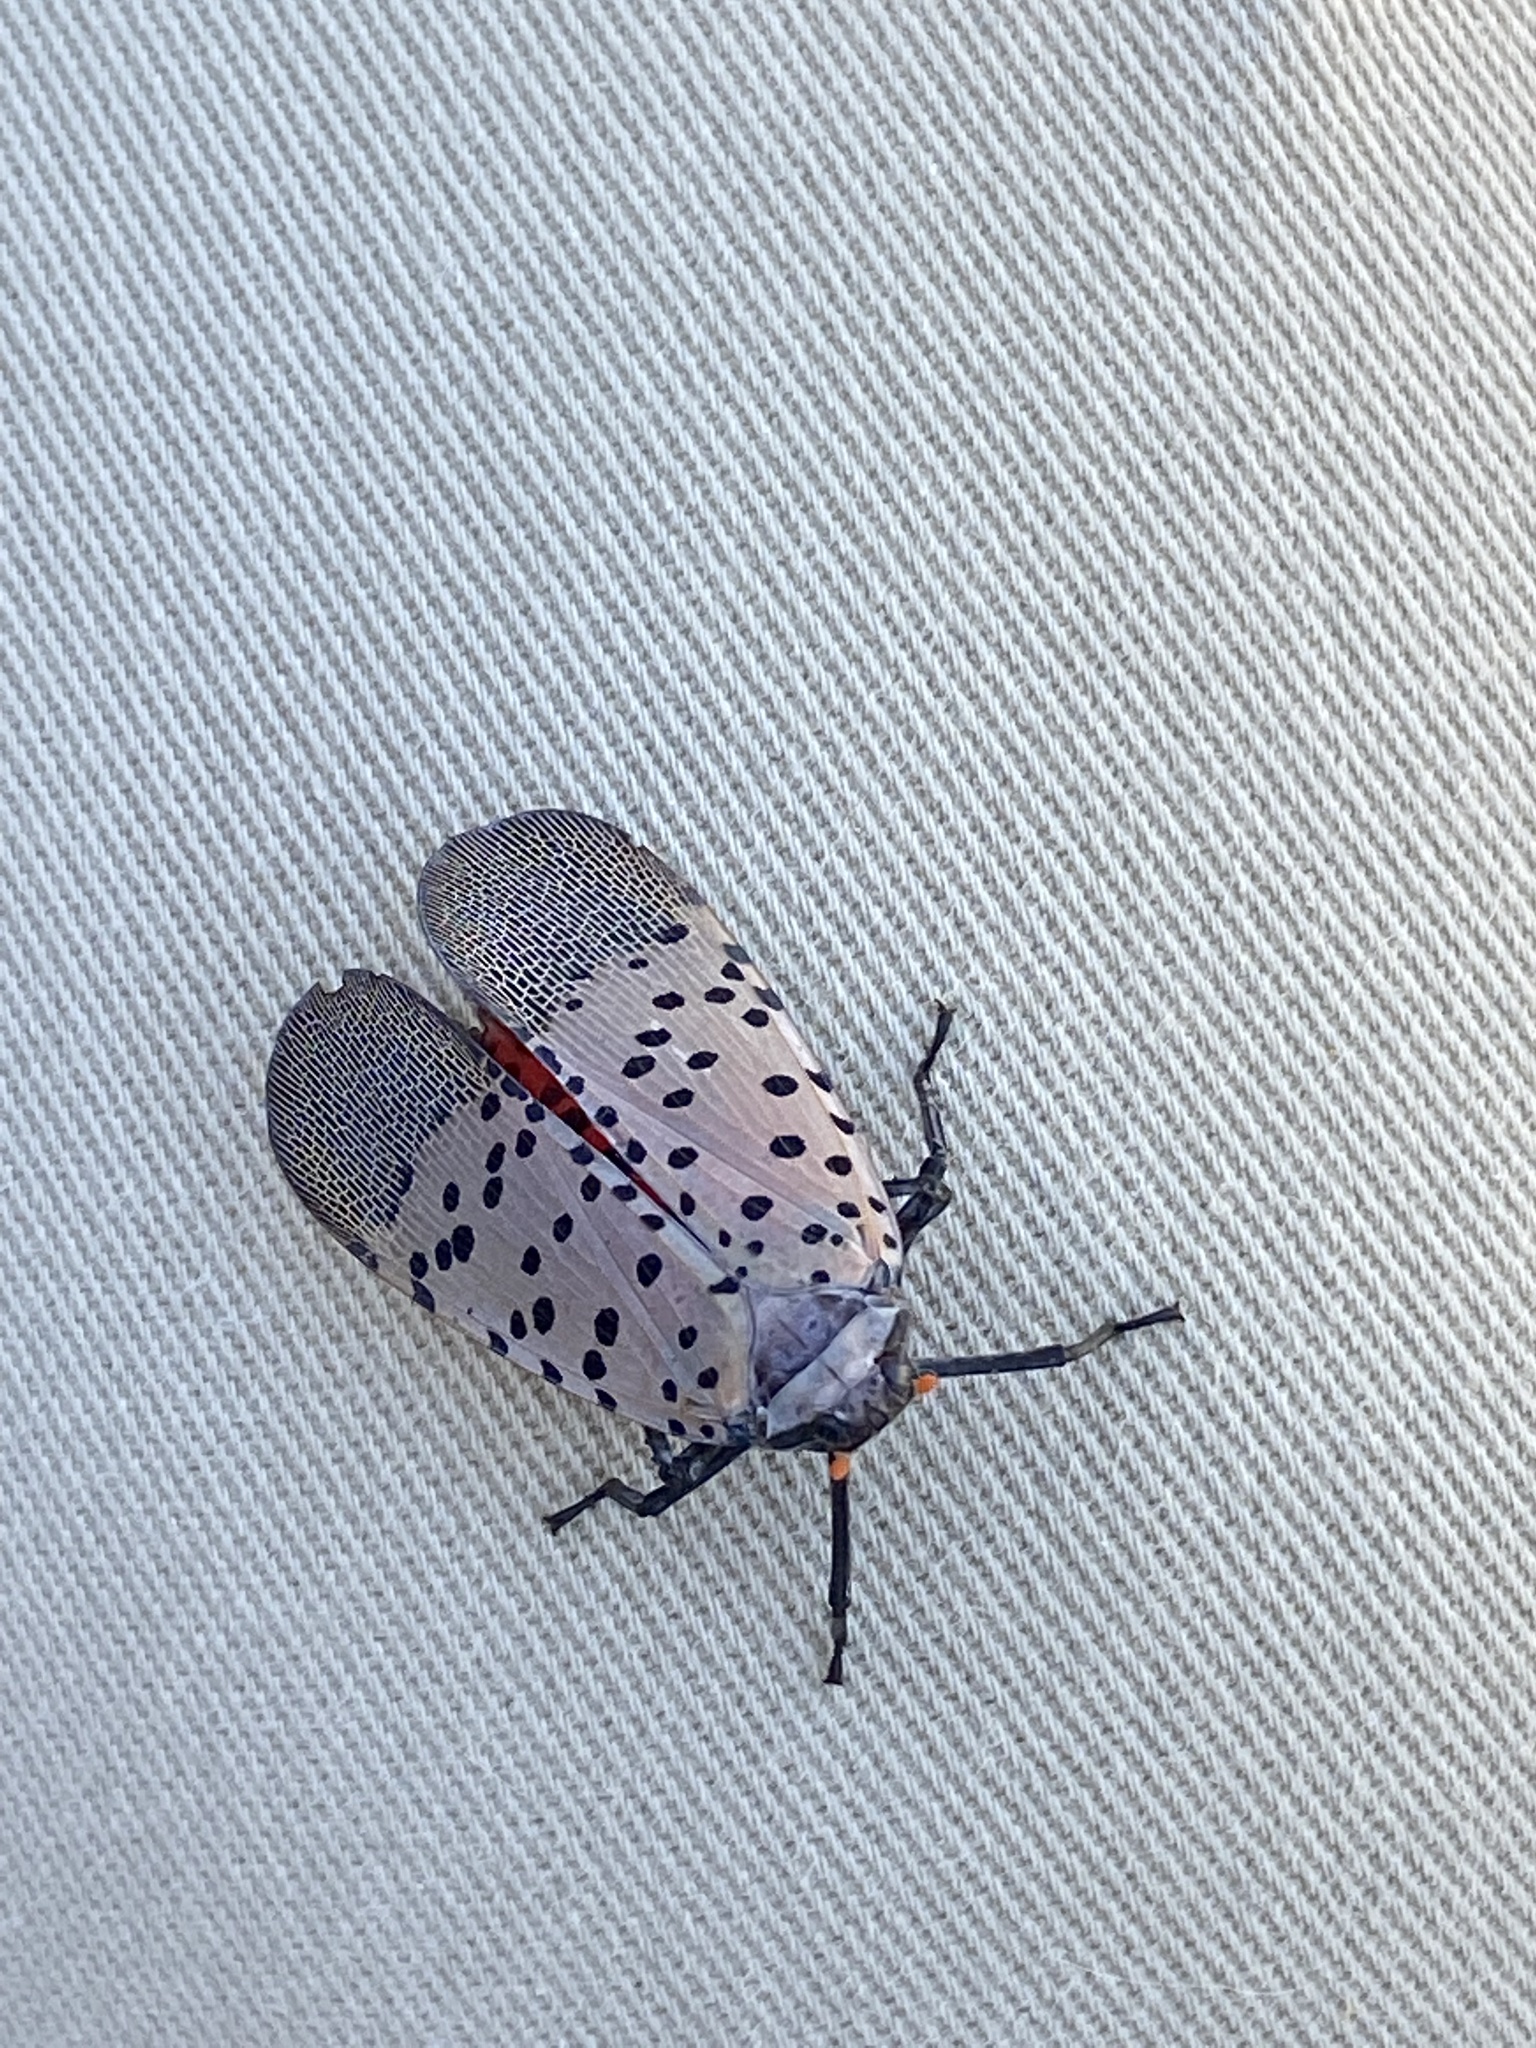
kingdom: Animalia
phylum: Arthropoda
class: Insecta
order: Hemiptera
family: Fulgoridae
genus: Lycorma
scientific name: Lycorma delicatula
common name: Spotted lanternfly
